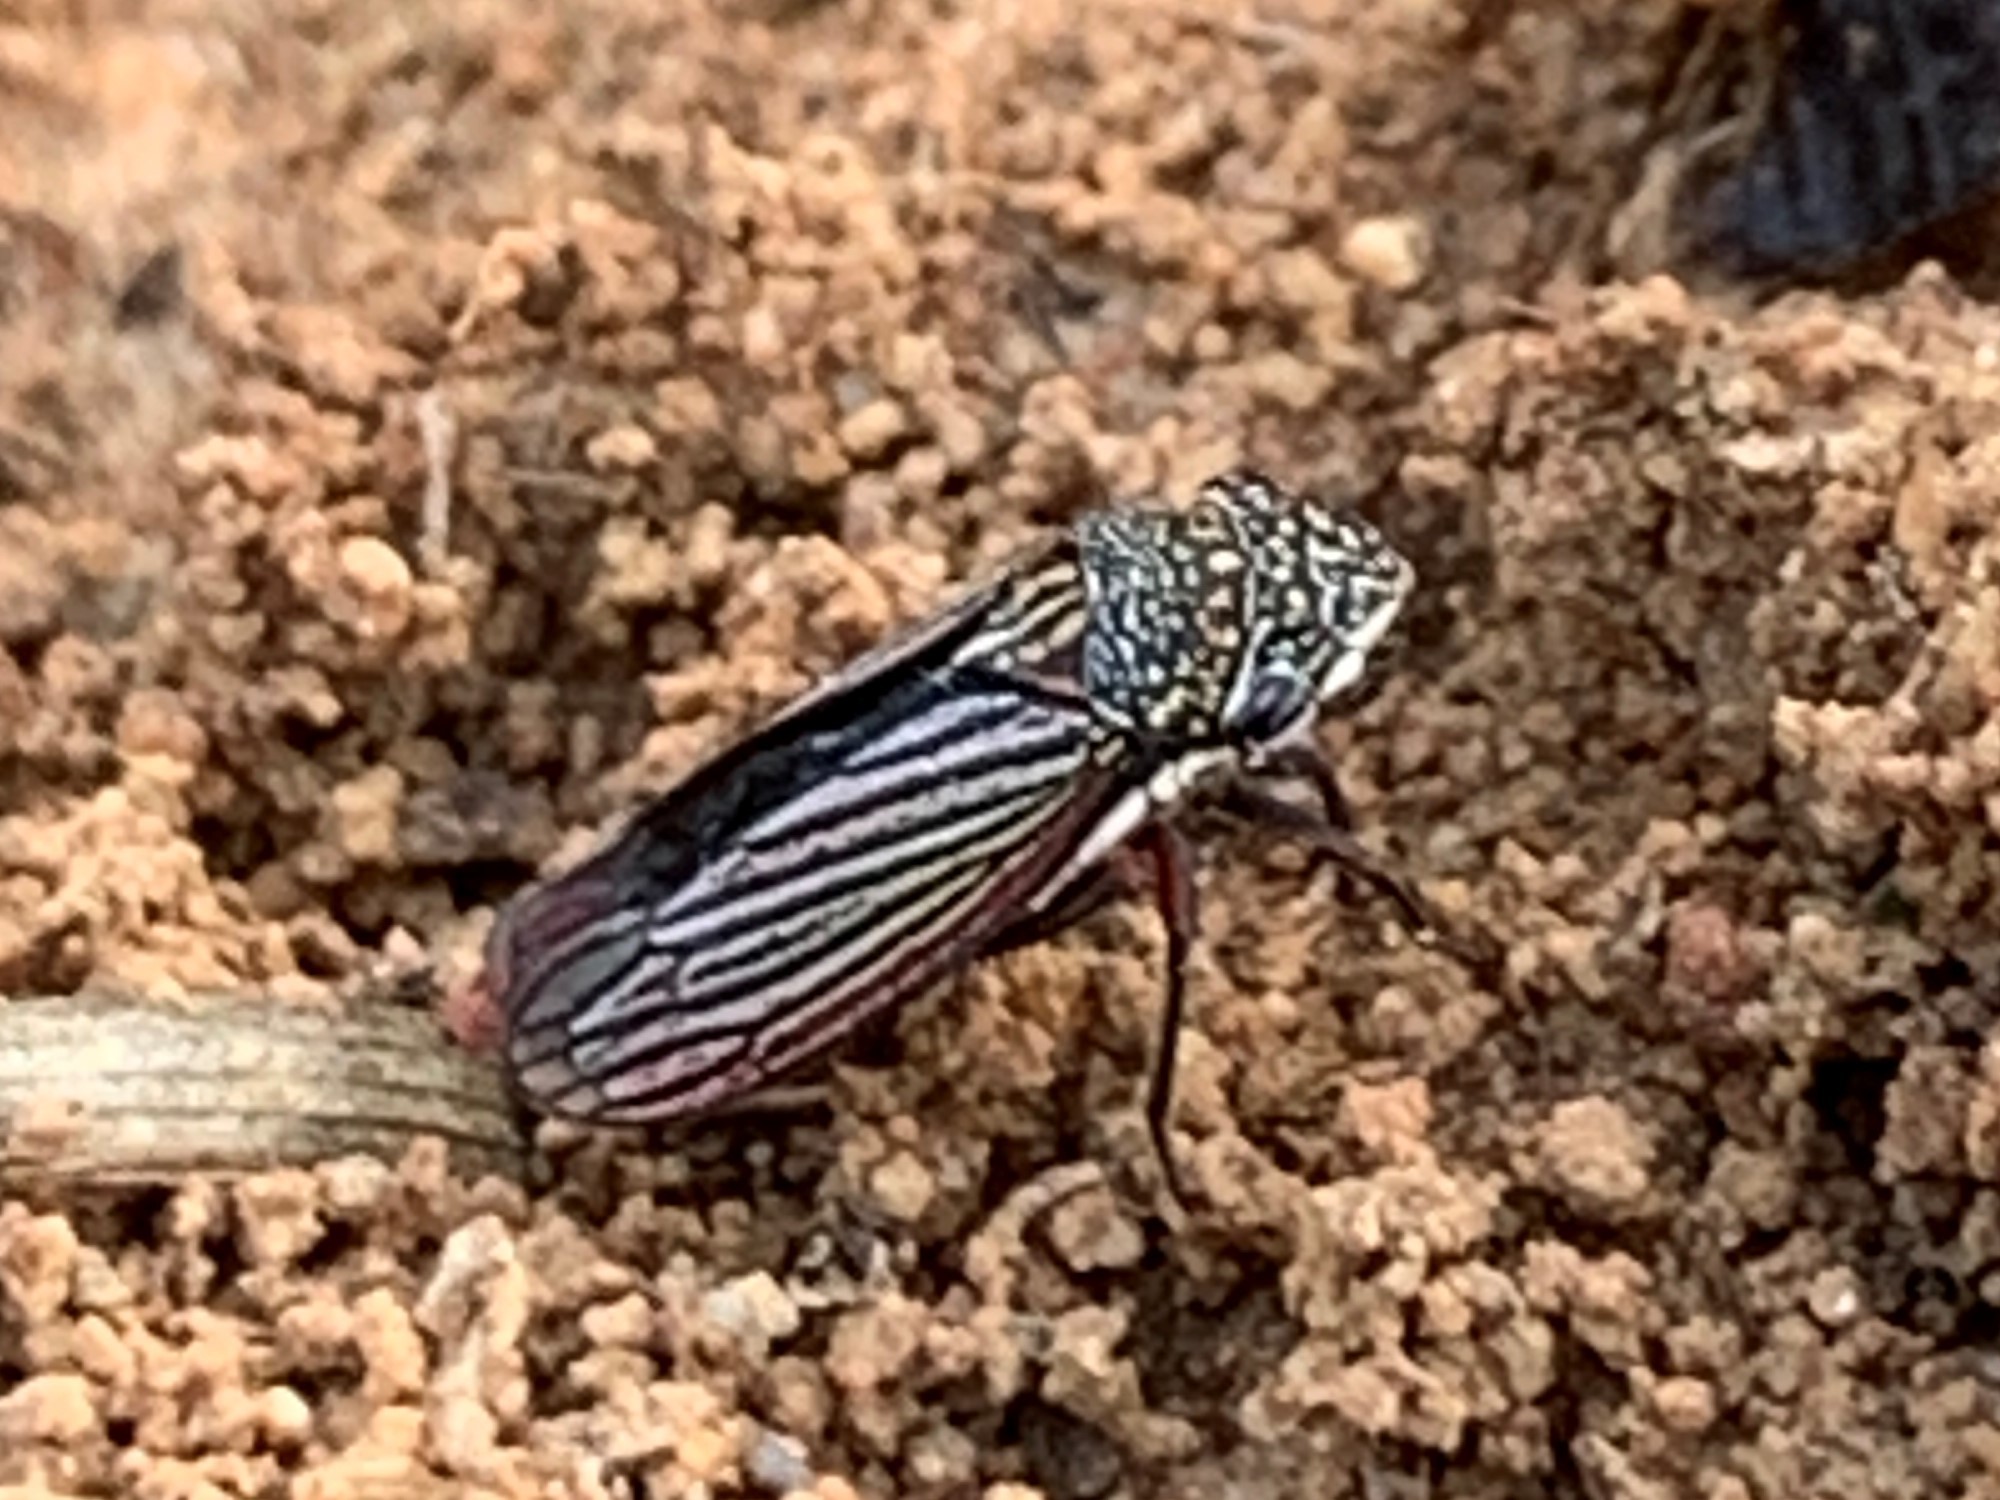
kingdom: Animalia
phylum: Arthropoda
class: Insecta
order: Hemiptera
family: Cicadellidae
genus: Cuerna
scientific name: Cuerna costalis
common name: Lateral-lined sharpshooter
